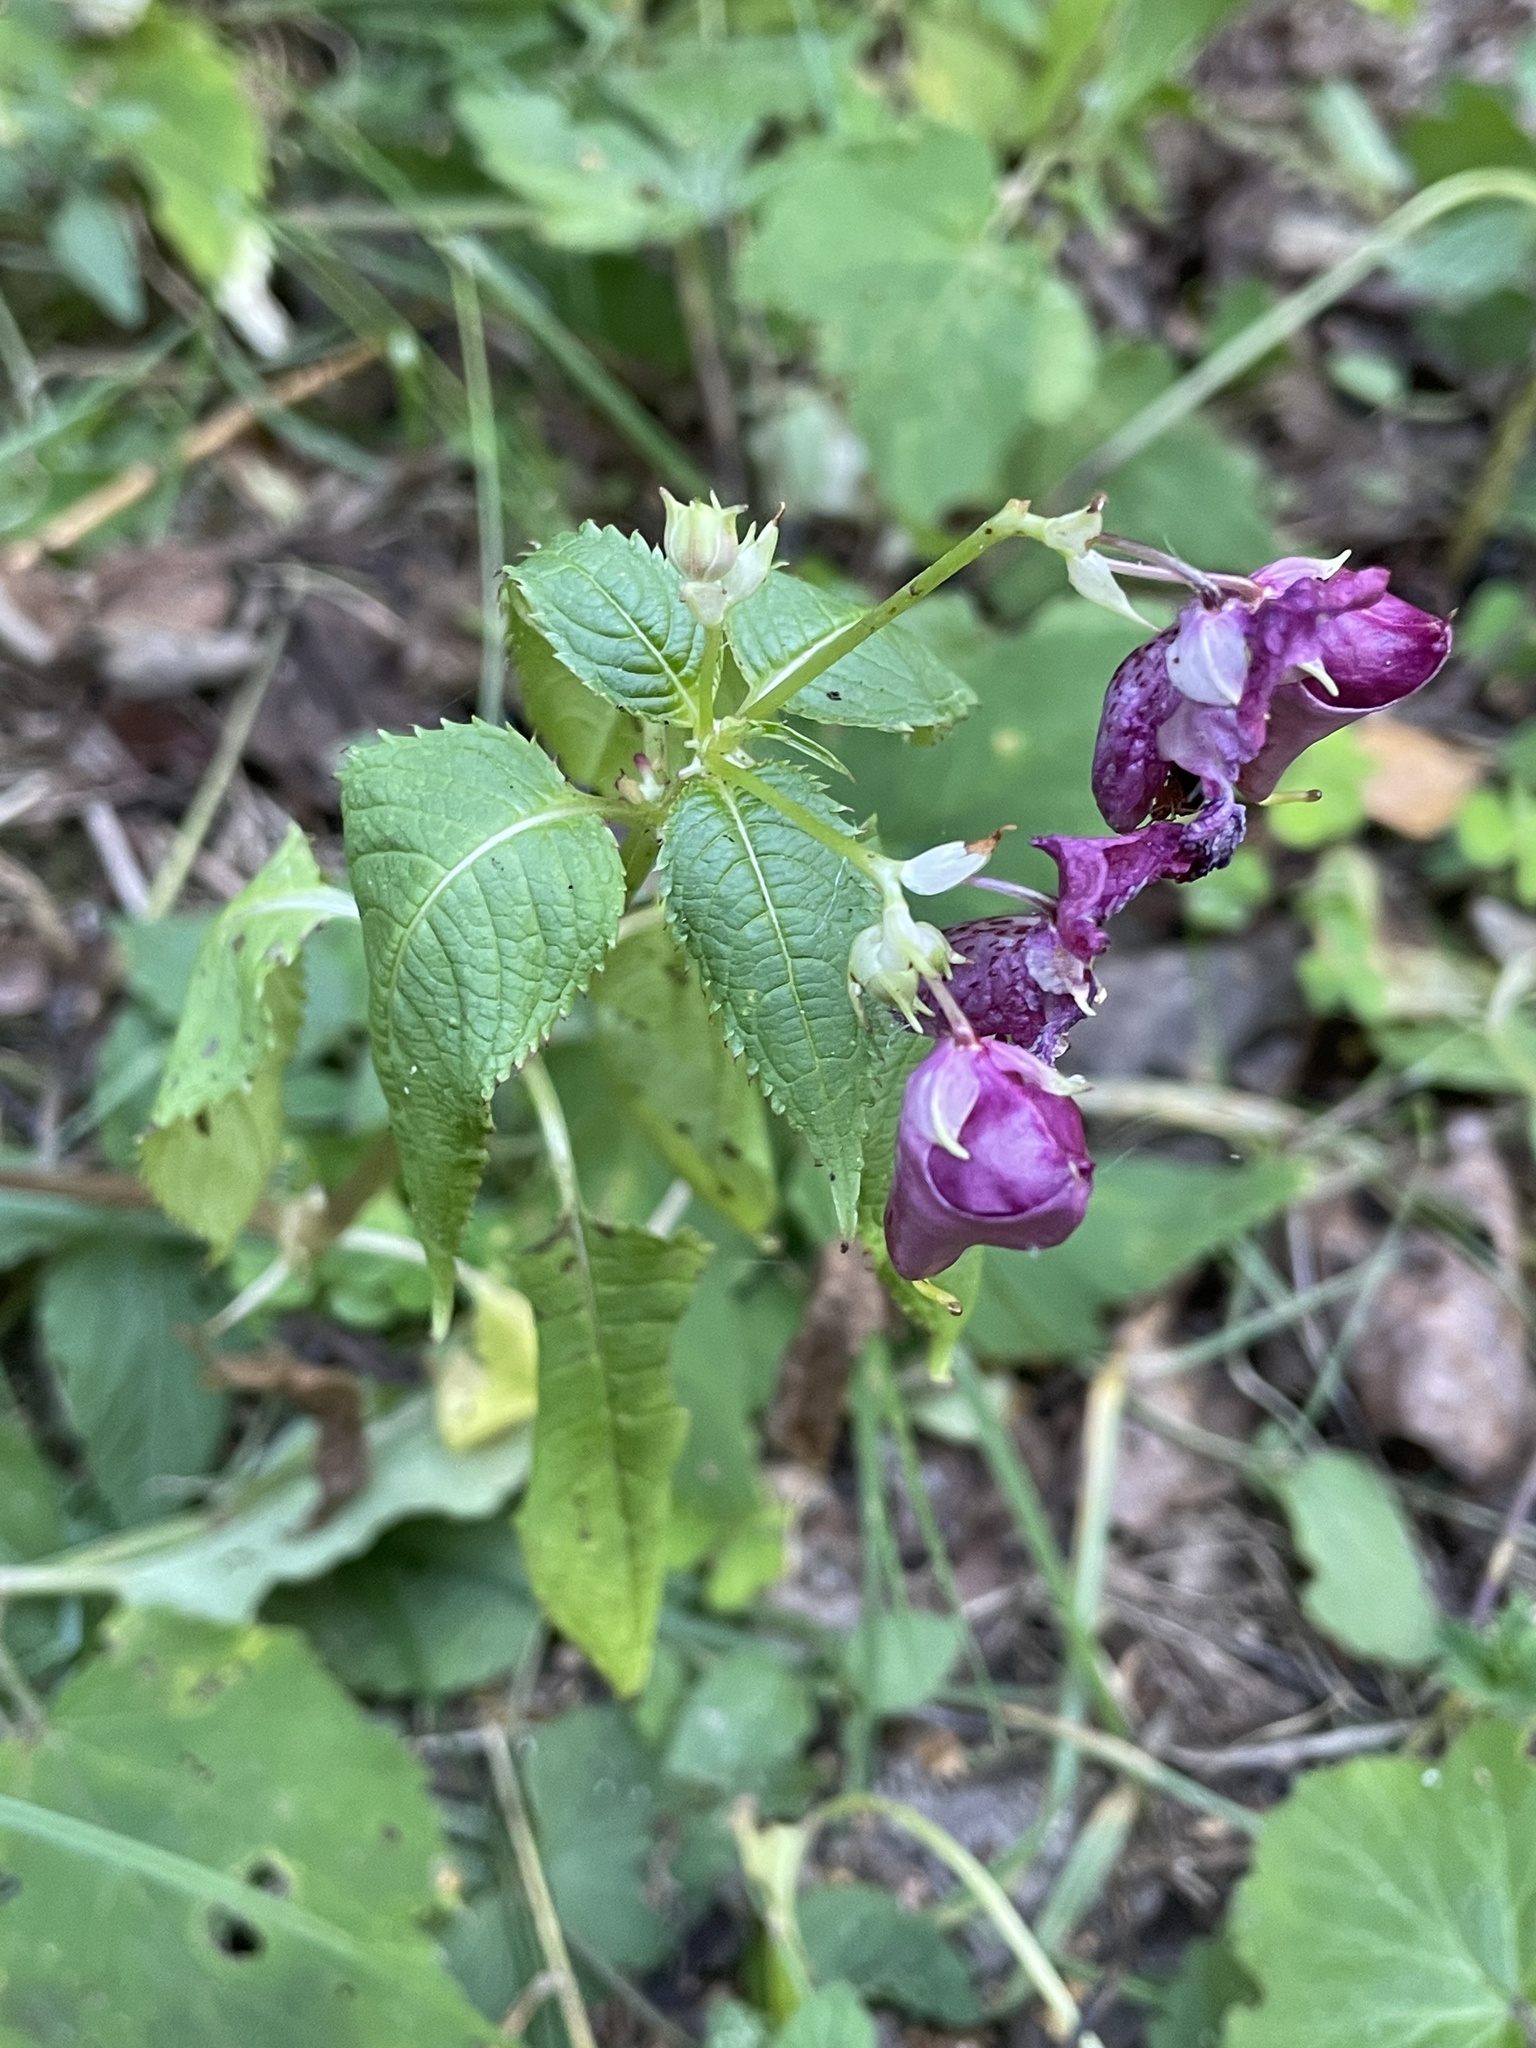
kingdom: Plantae
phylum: Tracheophyta
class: Magnoliopsida
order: Ericales
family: Balsaminaceae
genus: Impatiens
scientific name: Impatiens glandulifera
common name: Himalayan balsam
